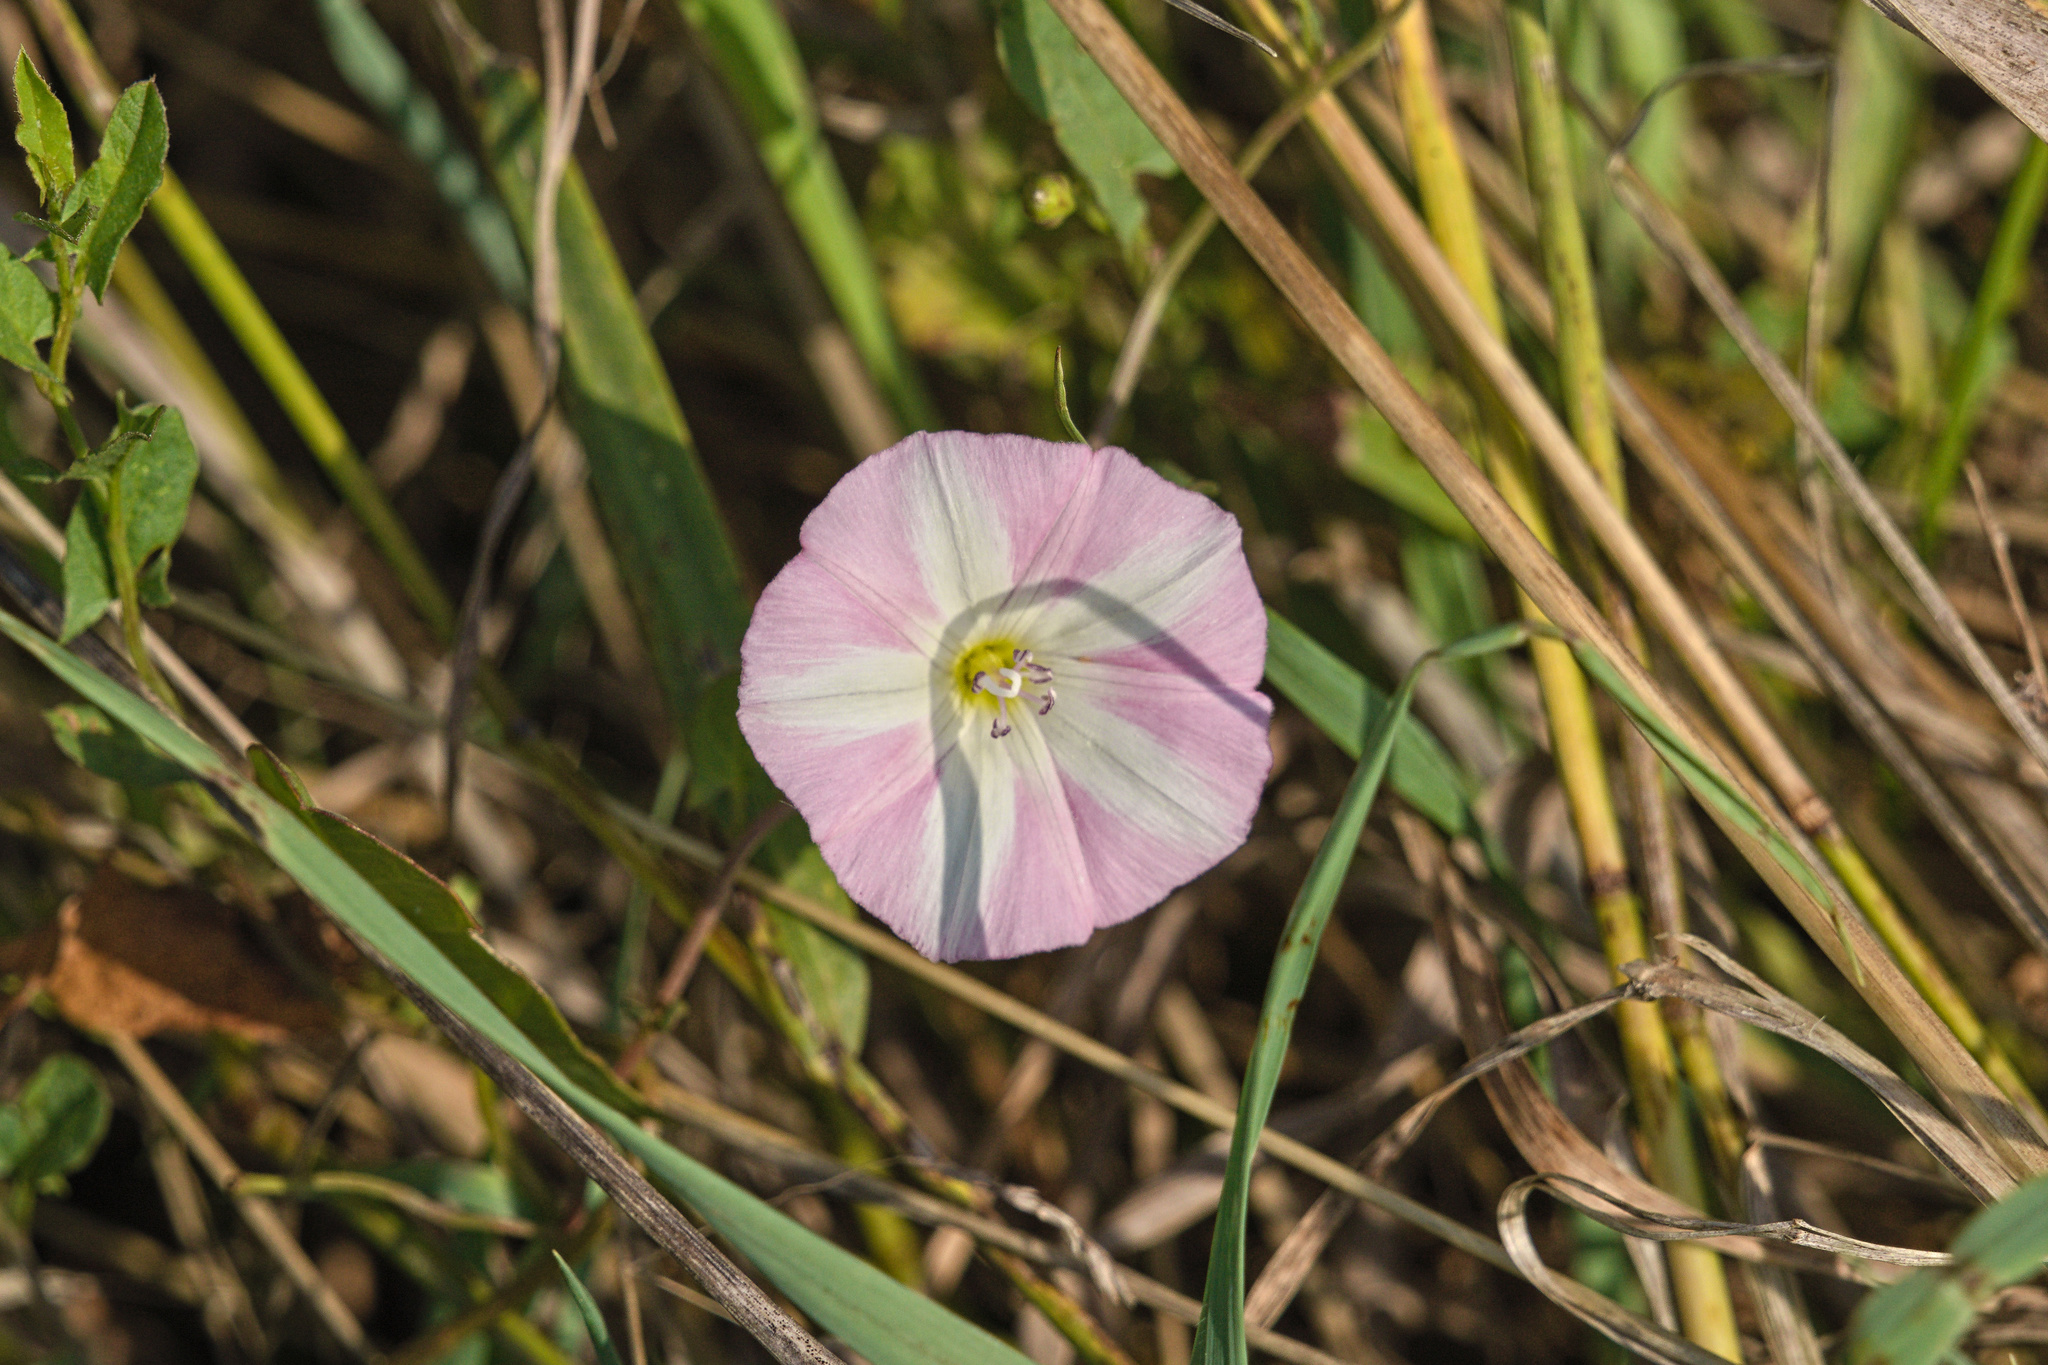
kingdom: Plantae
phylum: Tracheophyta
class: Magnoliopsida
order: Solanales
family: Convolvulaceae
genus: Convolvulus
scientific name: Convolvulus arvensis
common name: Field bindweed
